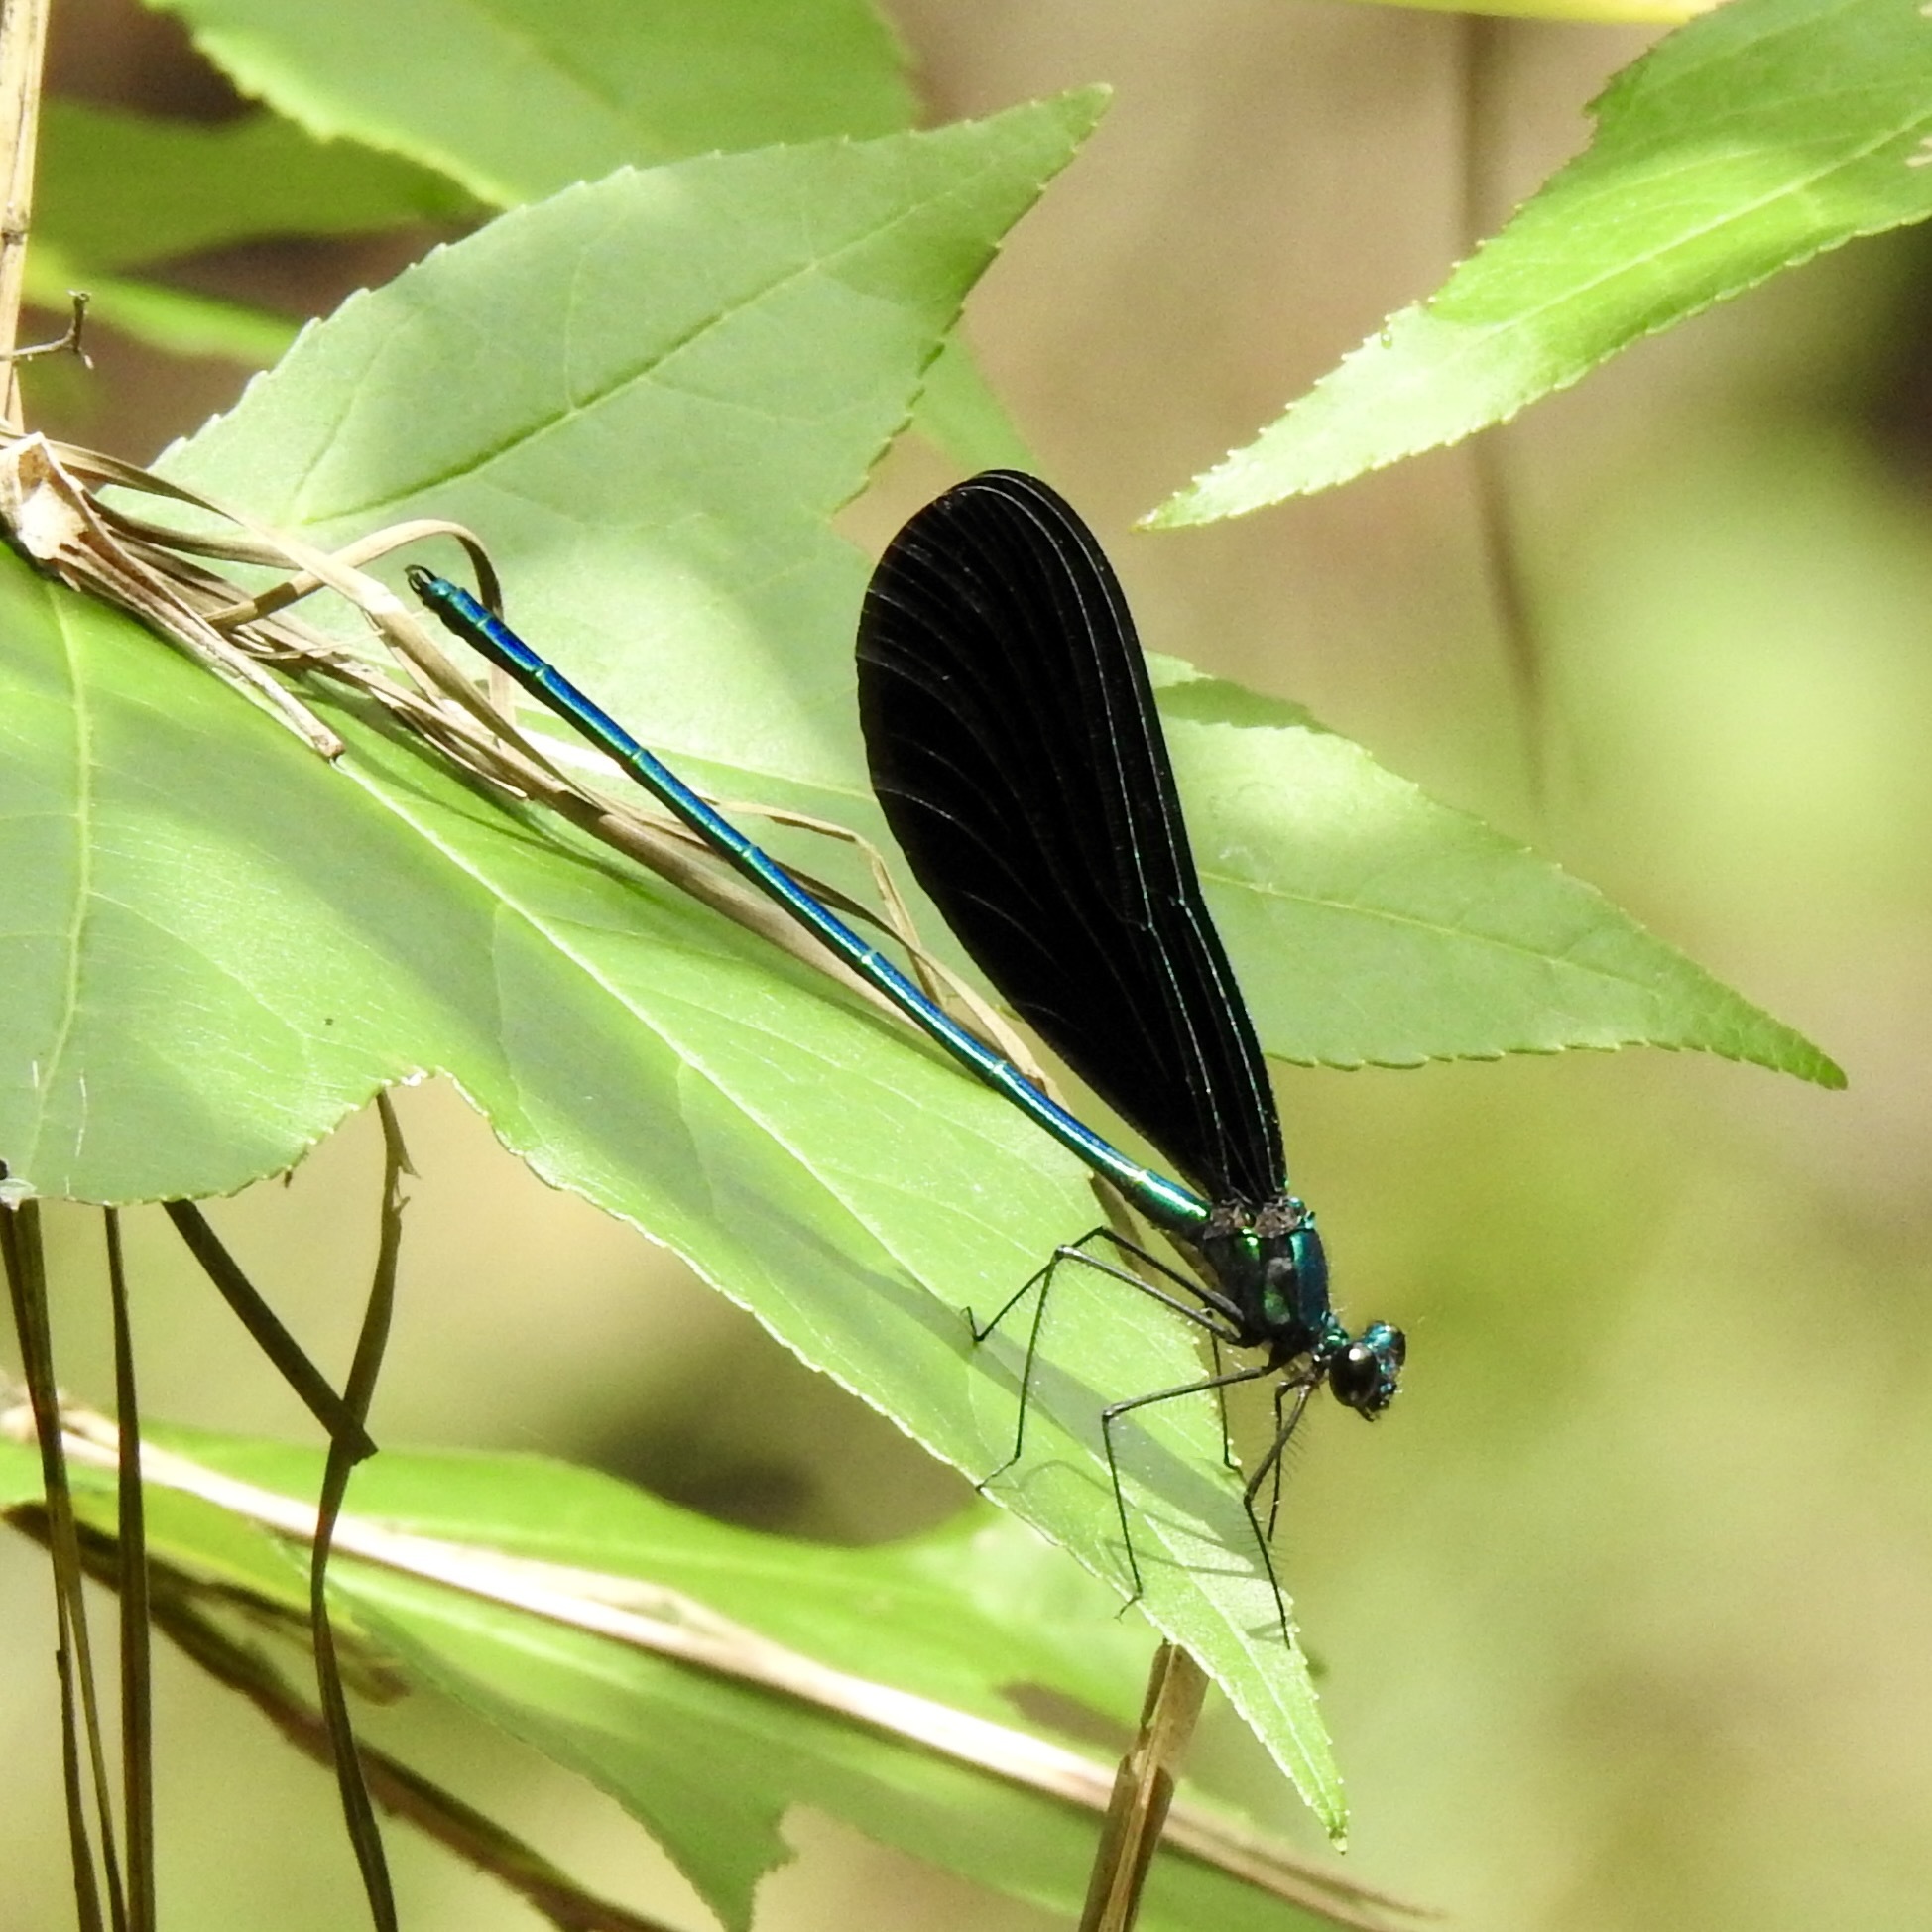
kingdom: Animalia
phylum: Arthropoda
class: Insecta
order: Odonata
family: Calopterygidae
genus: Calopteryx
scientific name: Calopteryx maculata
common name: Ebony jewelwing
